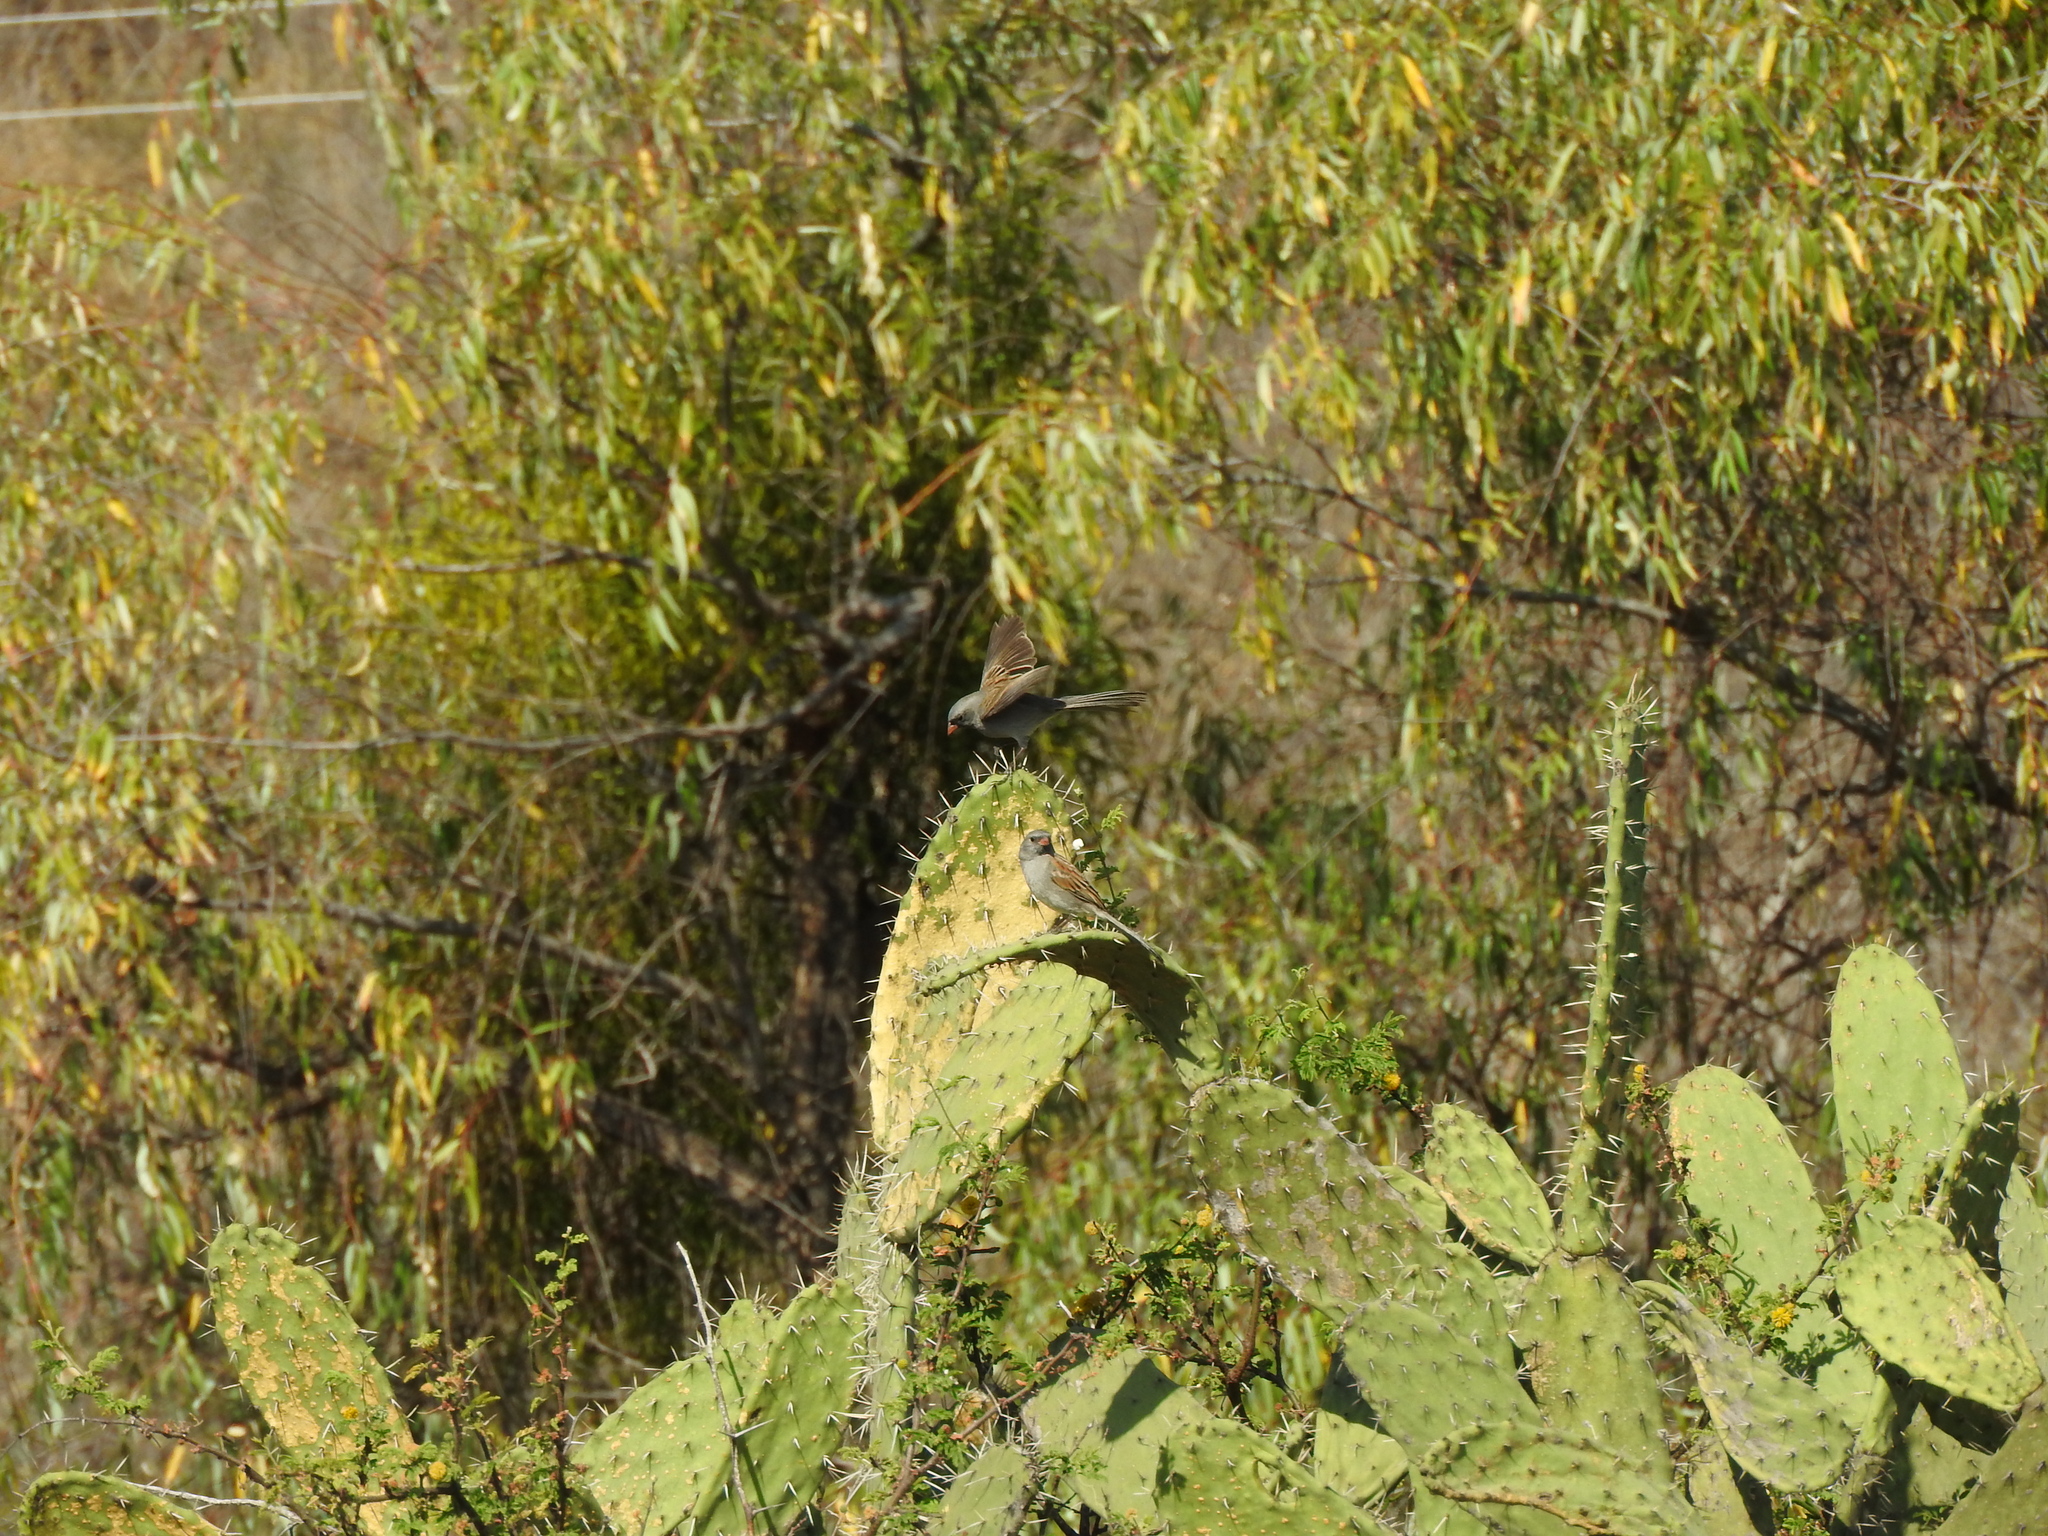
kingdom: Animalia
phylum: Chordata
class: Aves
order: Passeriformes
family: Passerellidae
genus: Spizella
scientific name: Spizella atrogularis
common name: Black-chinned sparrow
